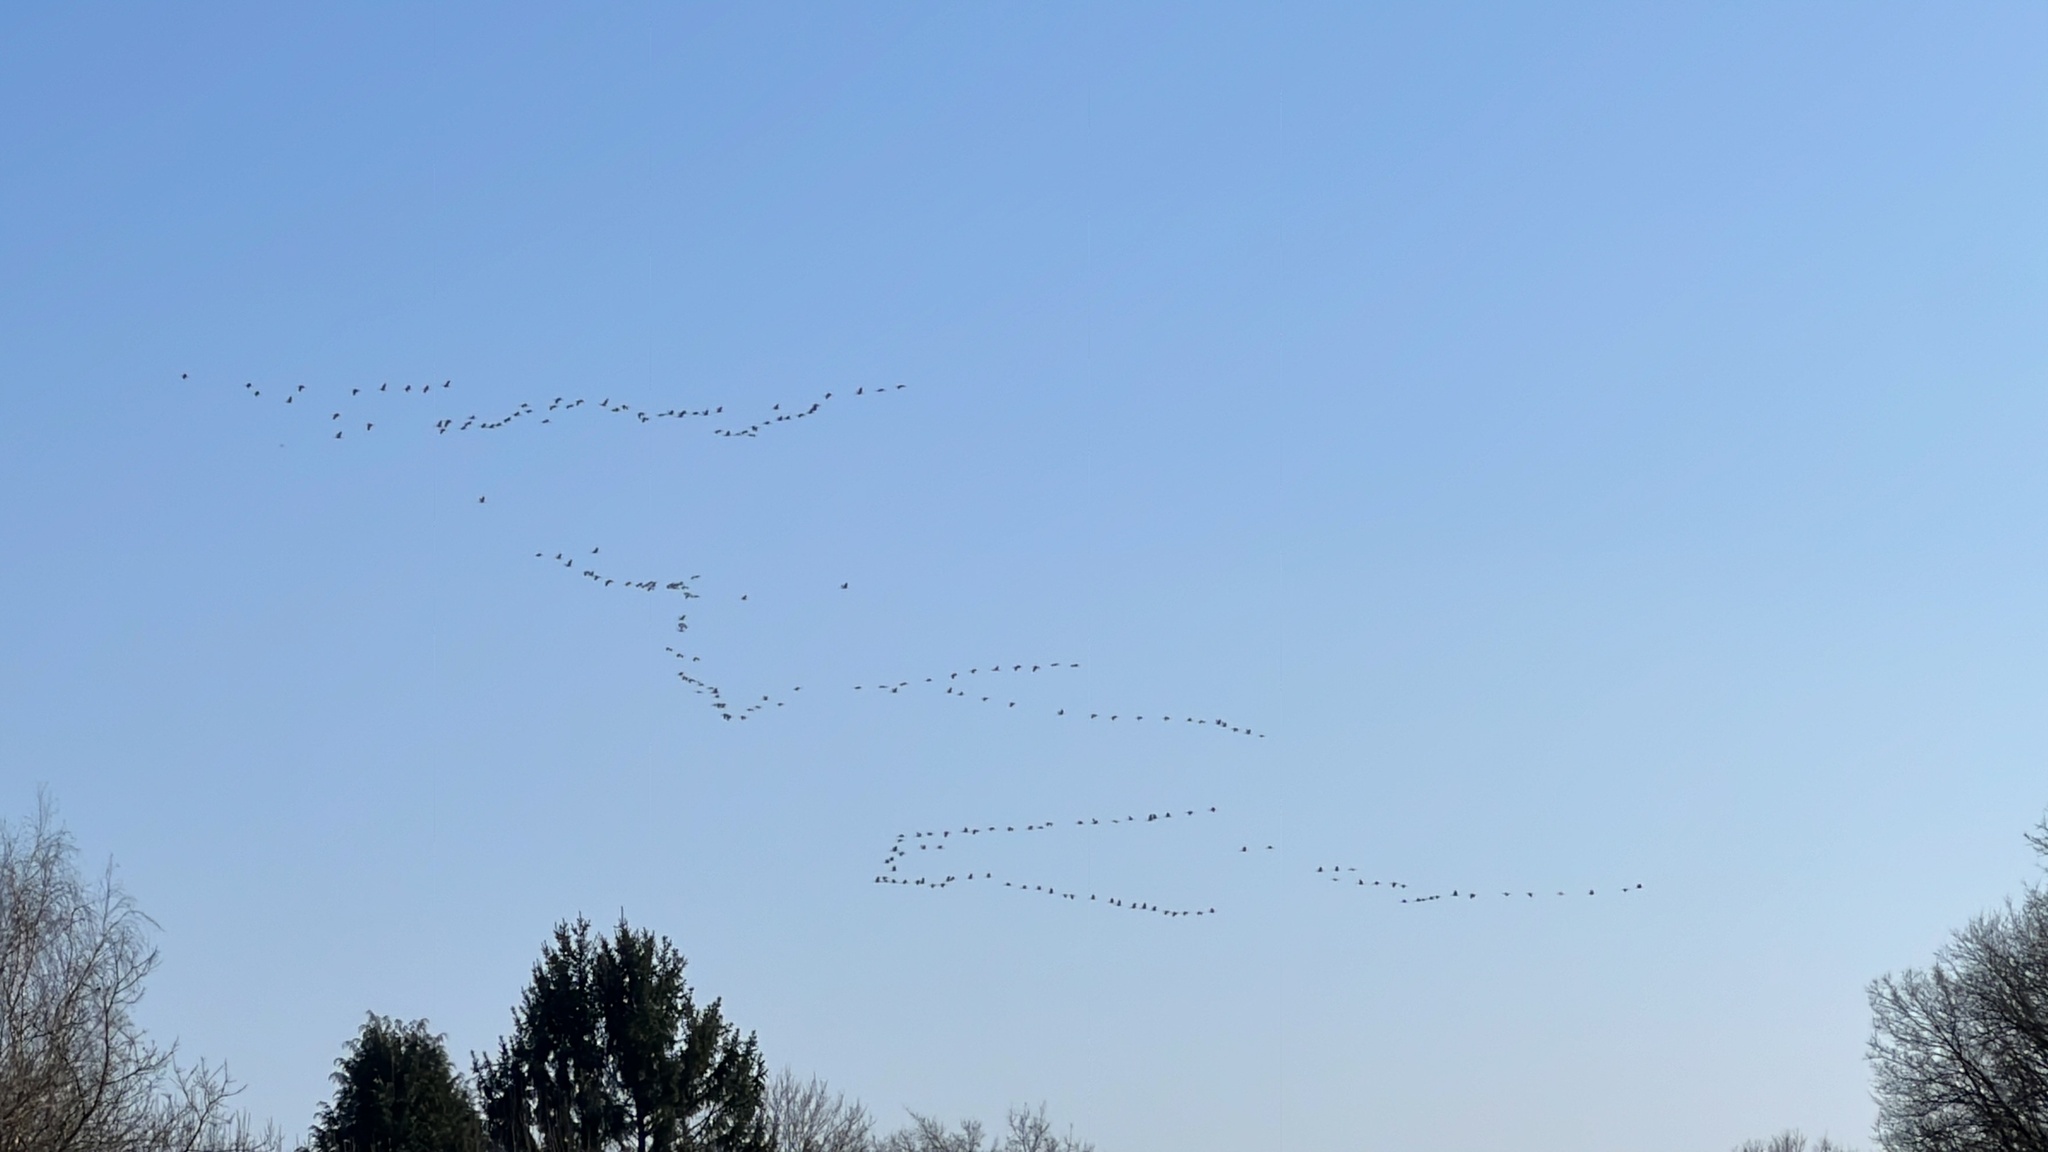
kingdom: Animalia
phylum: Chordata
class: Aves
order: Gruiformes
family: Gruidae
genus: Grus
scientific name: Grus grus
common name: Common crane
